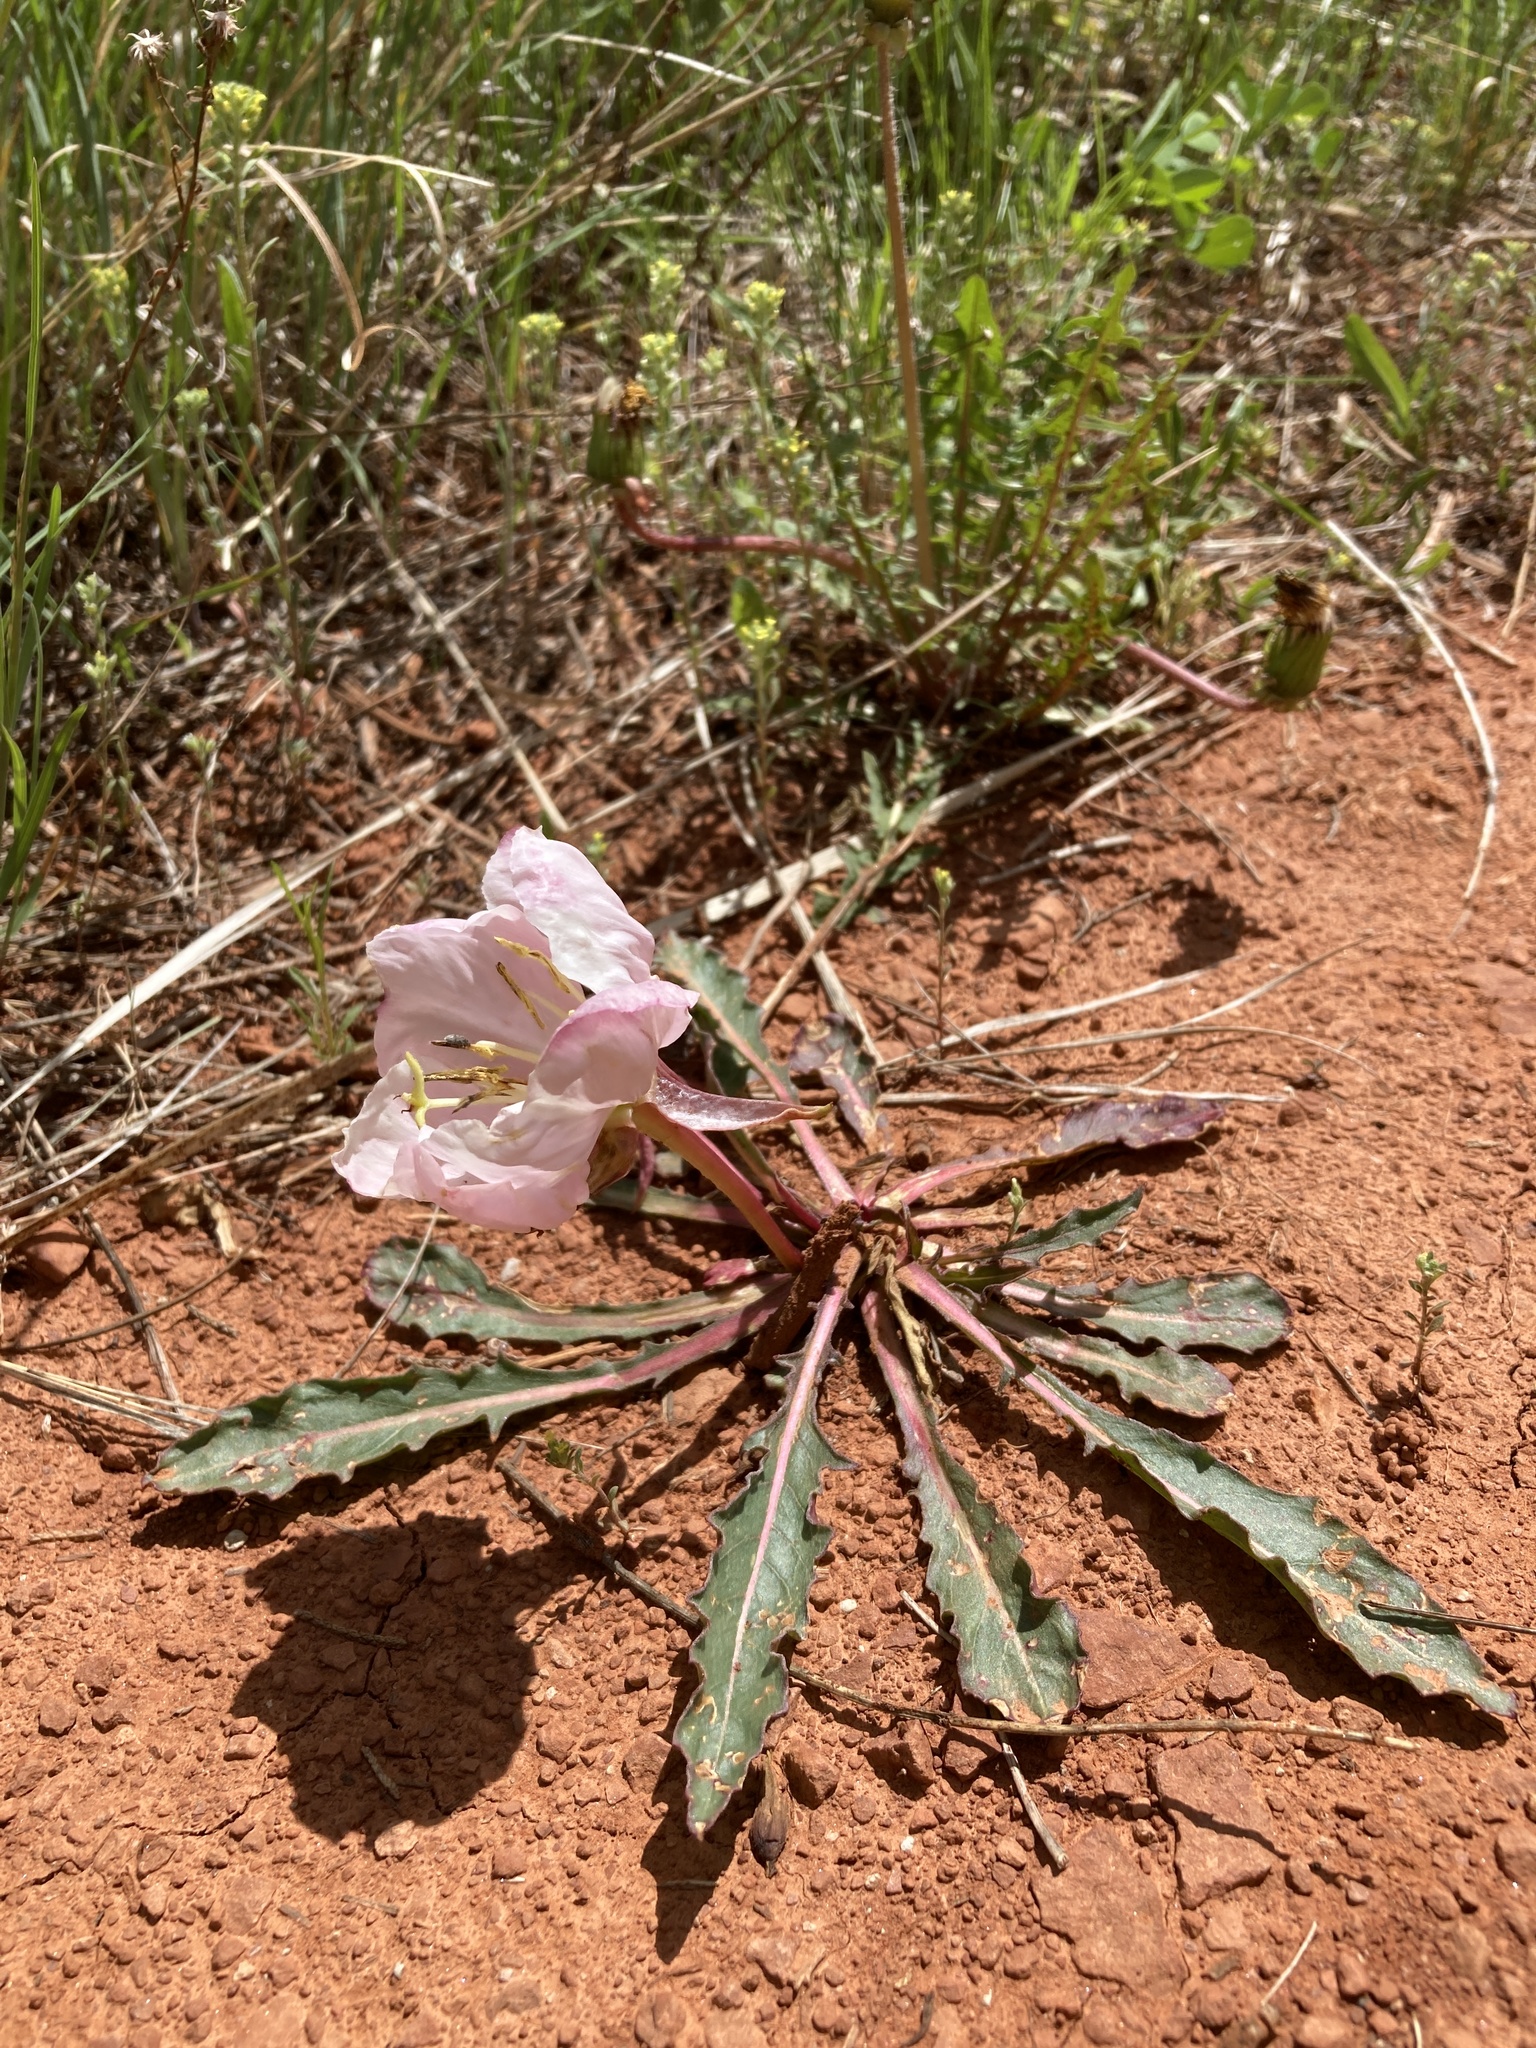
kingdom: Plantae
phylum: Tracheophyta
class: Magnoliopsida
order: Myrtales
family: Onagraceae
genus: Oenothera
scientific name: Oenothera cespitosa
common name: Tufted evening-primrose
